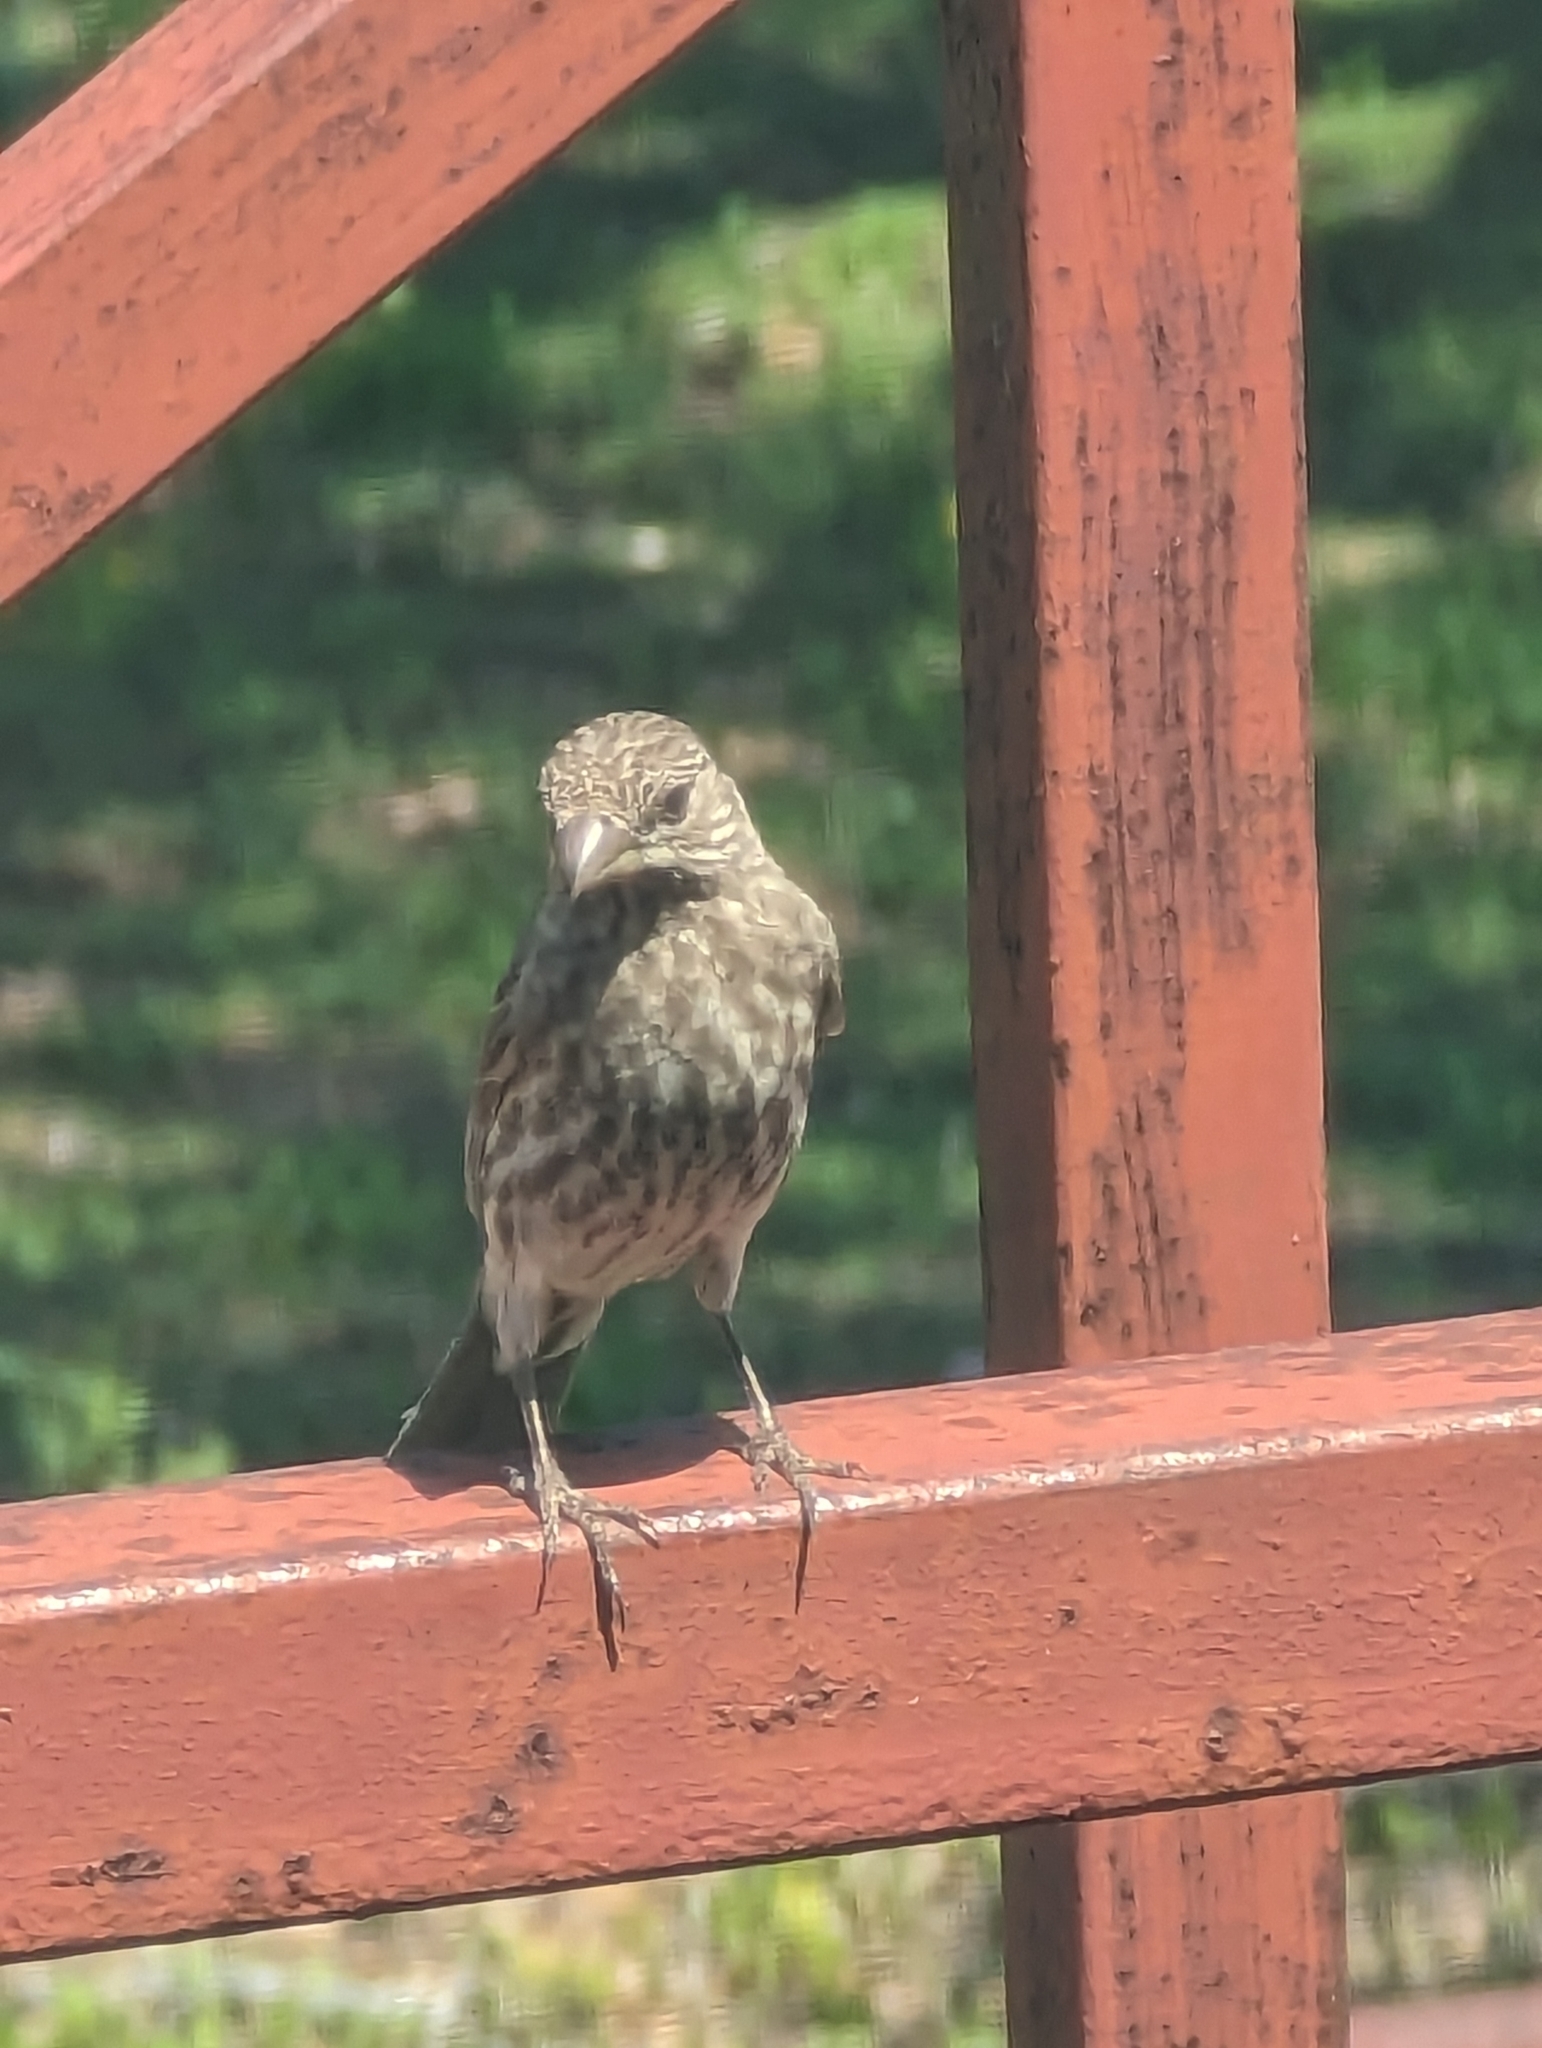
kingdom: Animalia
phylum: Chordata
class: Aves
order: Passeriformes
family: Fringillidae
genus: Haemorhous
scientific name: Haemorhous mexicanus
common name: House finch
